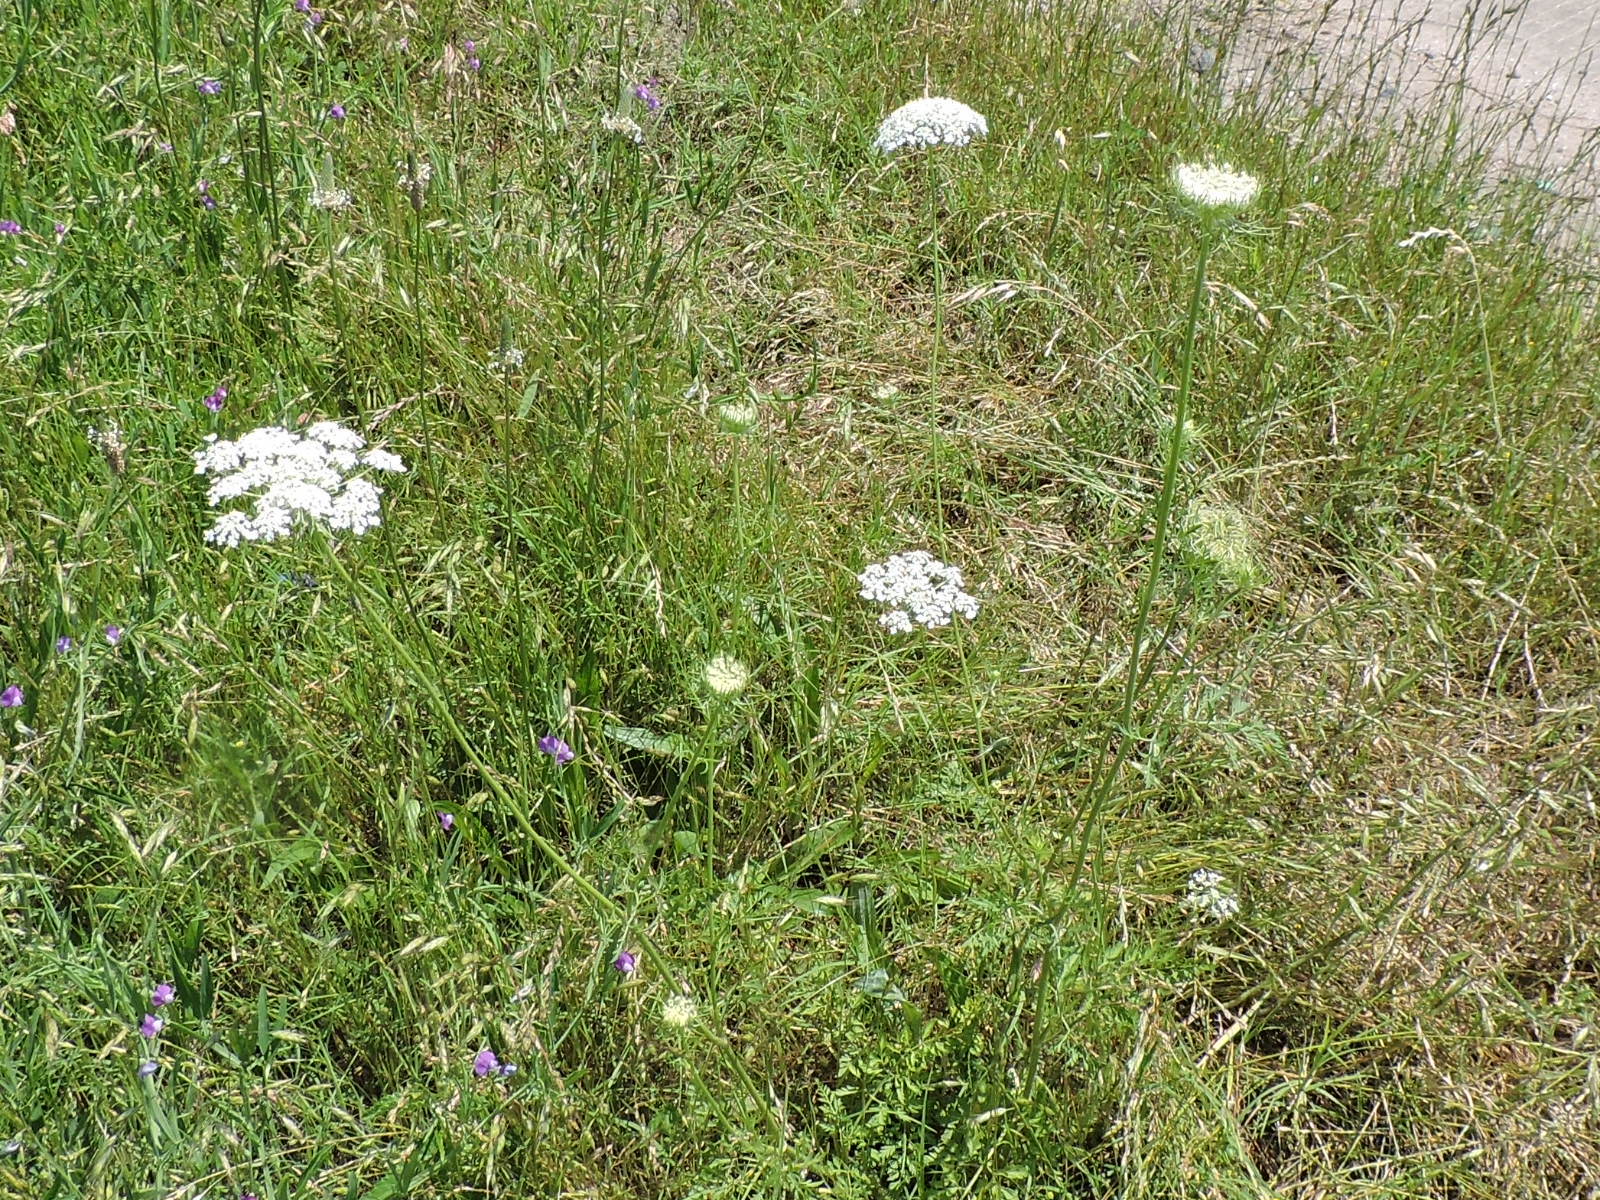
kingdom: Plantae
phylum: Tracheophyta
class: Magnoliopsida
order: Apiales
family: Apiaceae
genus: Daucus
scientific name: Daucus carota
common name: Wild carrot
